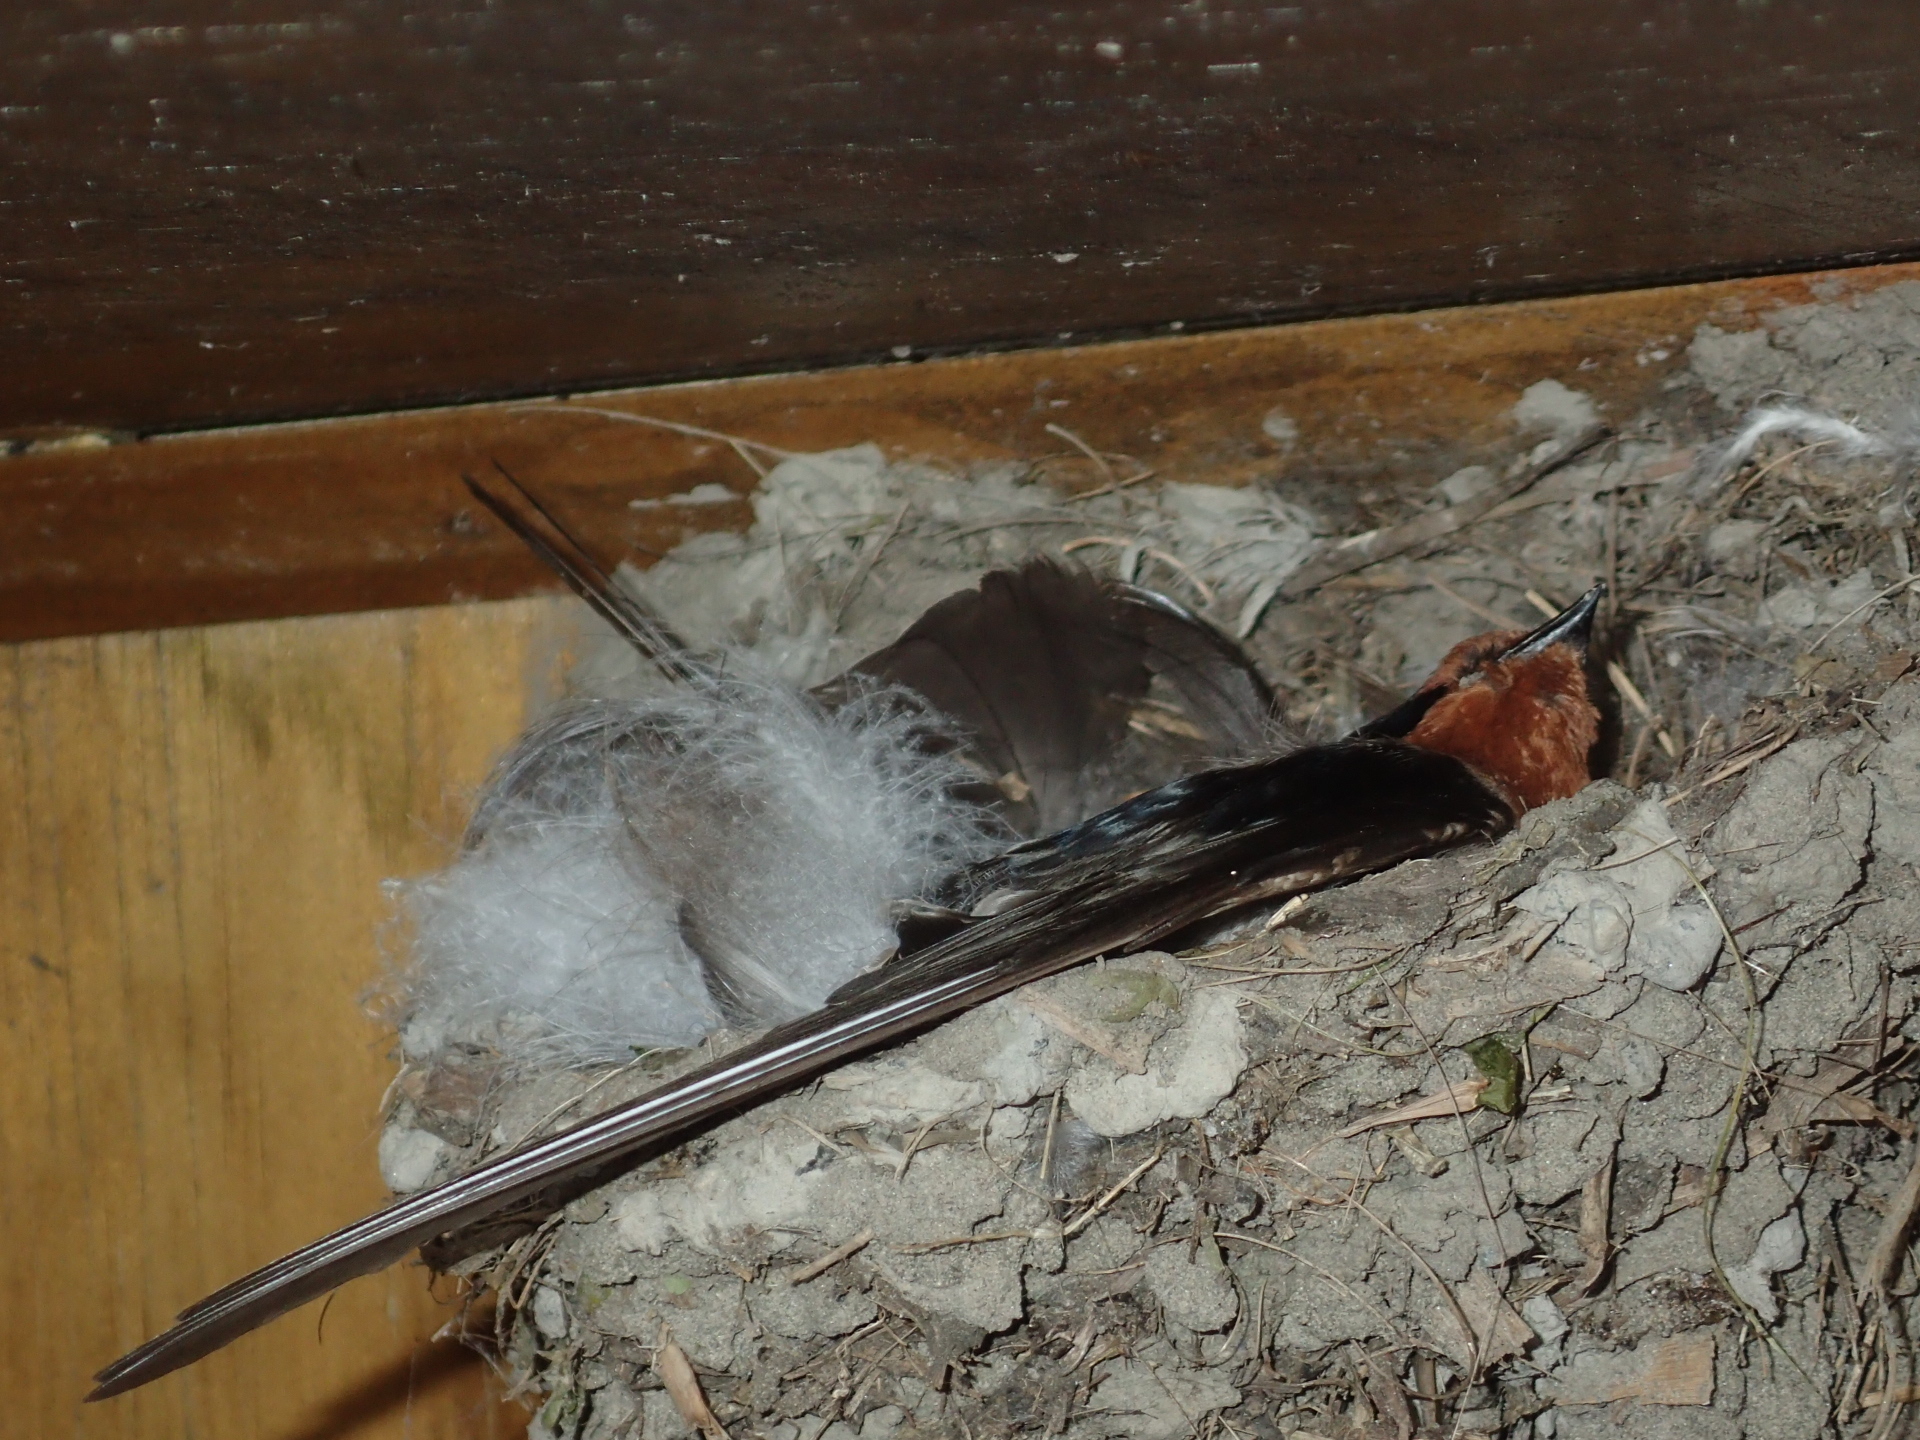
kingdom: Animalia
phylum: Chordata
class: Aves
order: Passeriformes
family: Hirundinidae
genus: Hirundo
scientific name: Hirundo neoxena
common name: Welcome swallow
